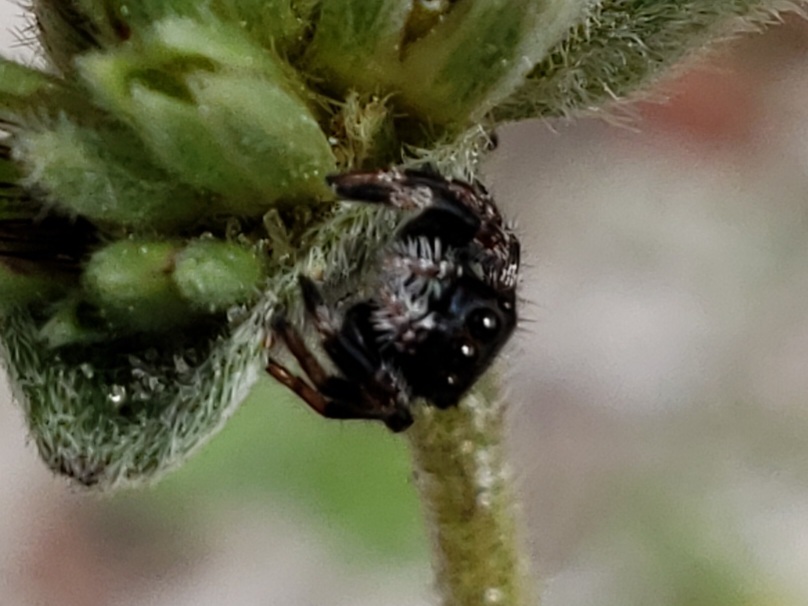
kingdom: Animalia
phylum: Arthropoda
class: Arachnida
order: Araneae
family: Salticidae
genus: Phidippus
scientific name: Phidippus regius
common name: Regal jumper
